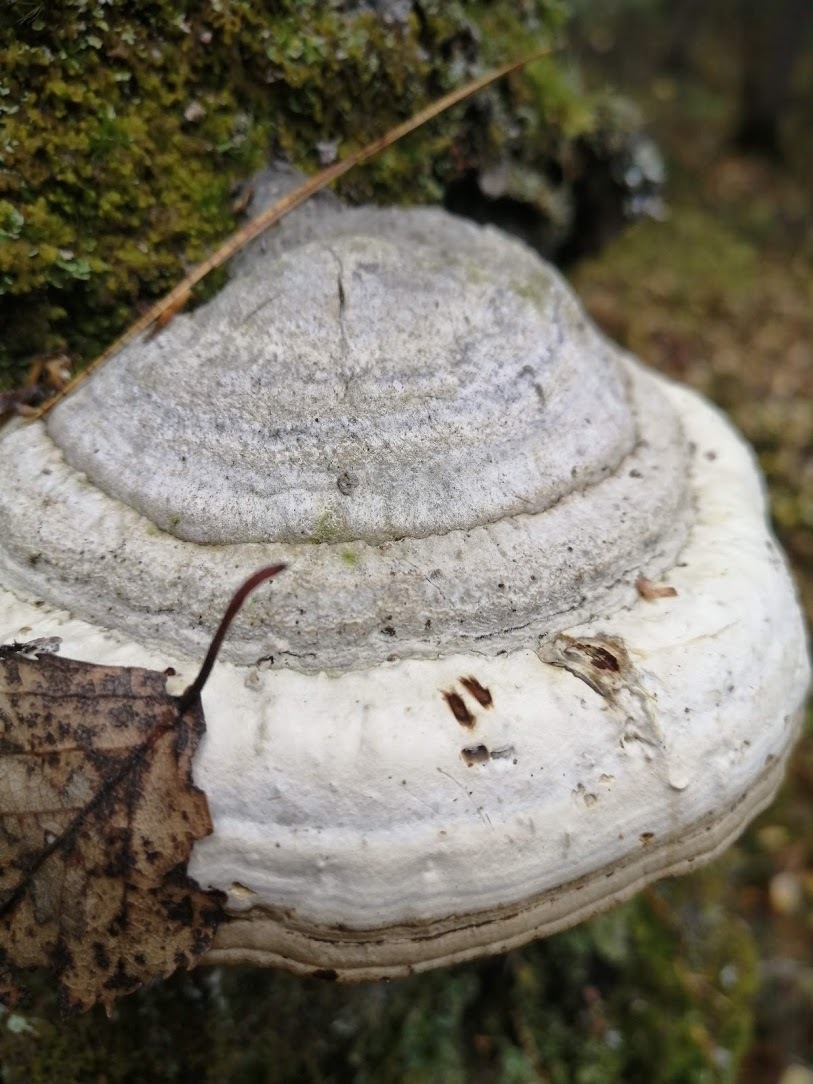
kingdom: Fungi
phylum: Basidiomycota
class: Agaricomycetes
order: Polyporales
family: Polyporaceae
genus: Fomes
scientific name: Fomes fomentarius
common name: Hoof fungus
